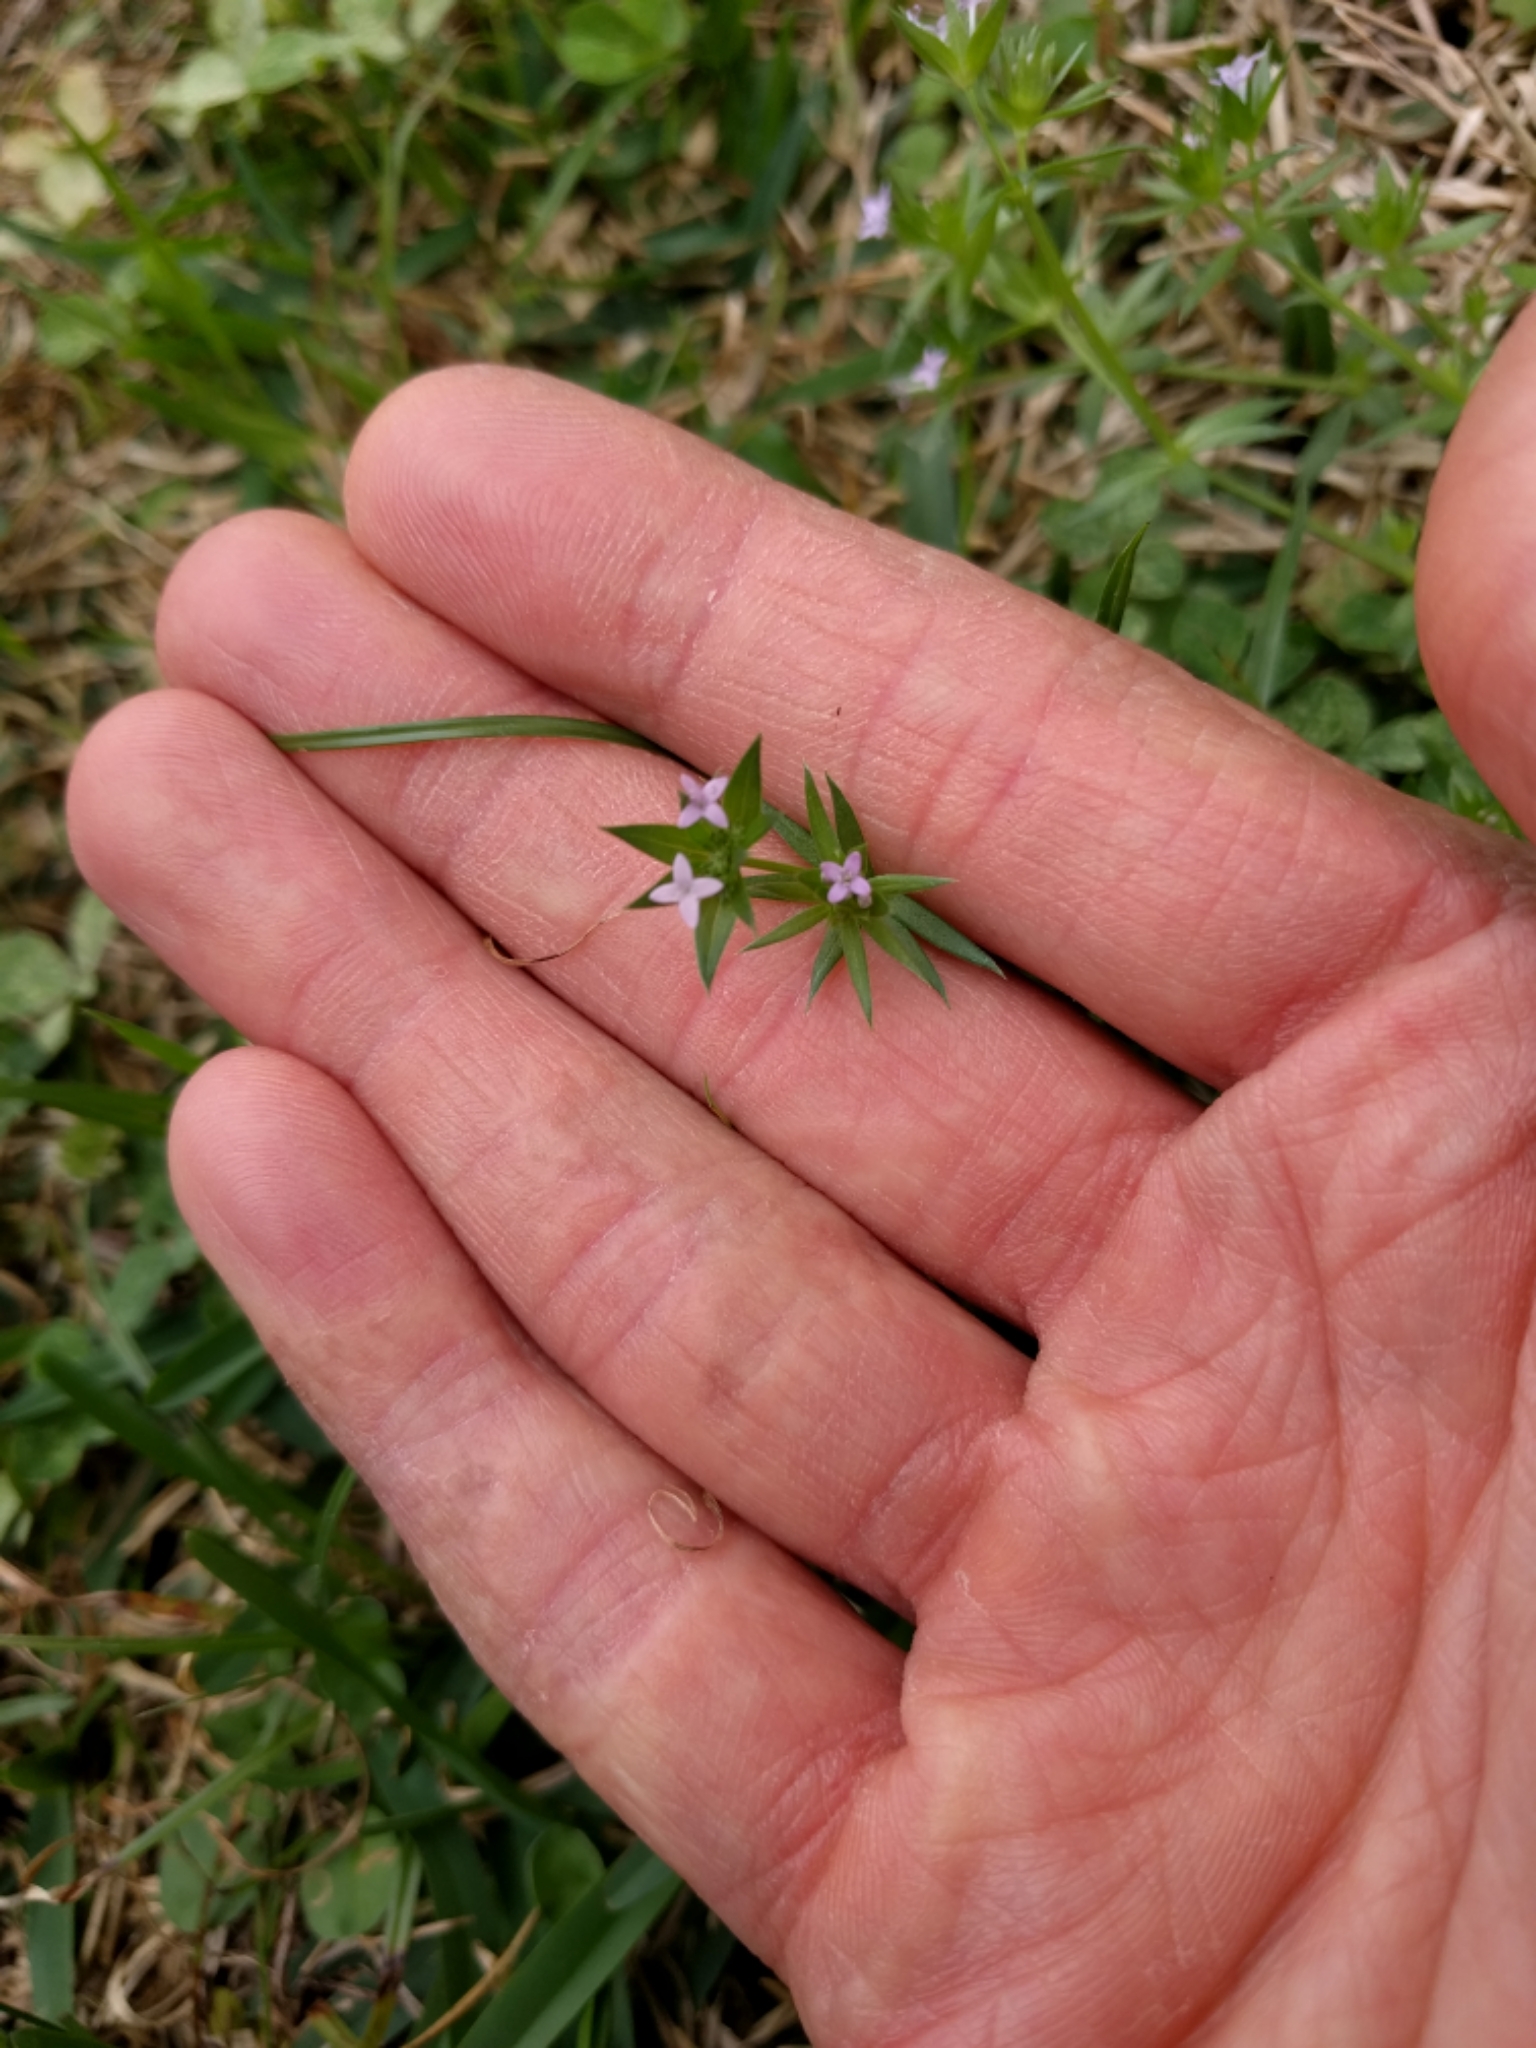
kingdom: Plantae
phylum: Tracheophyta
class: Magnoliopsida
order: Gentianales
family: Rubiaceae
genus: Sherardia
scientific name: Sherardia arvensis
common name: Field madder
